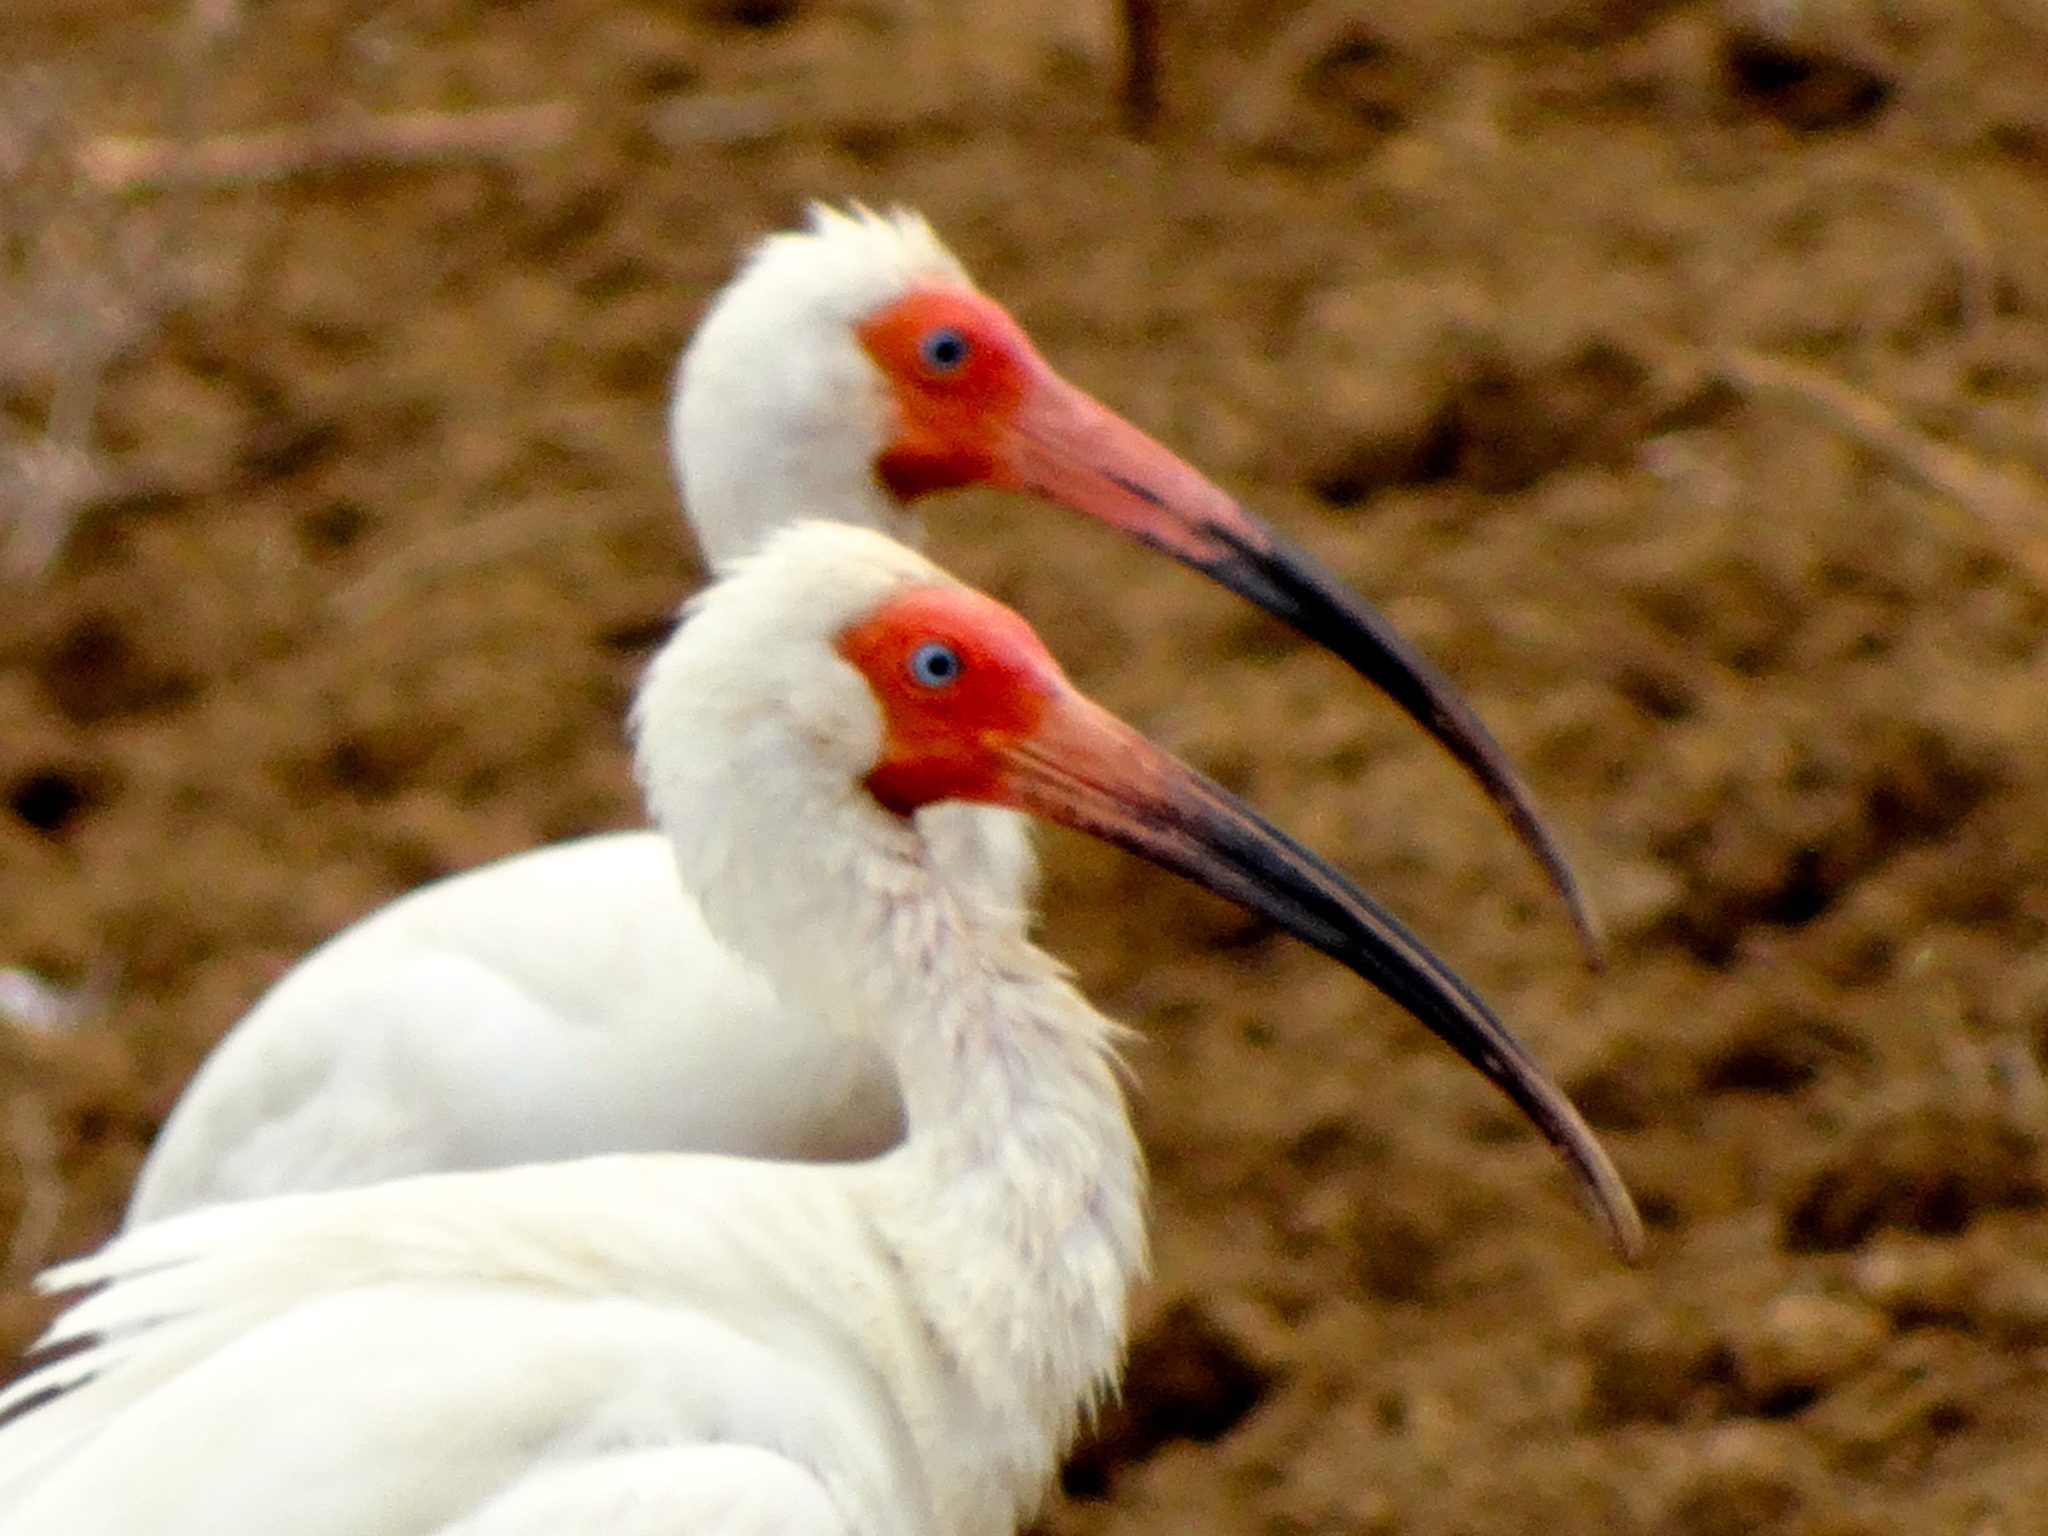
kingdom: Animalia
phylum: Chordata
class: Aves
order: Pelecaniformes
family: Threskiornithidae
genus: Eudocimus
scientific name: Eudocimus albus
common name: White ibis
